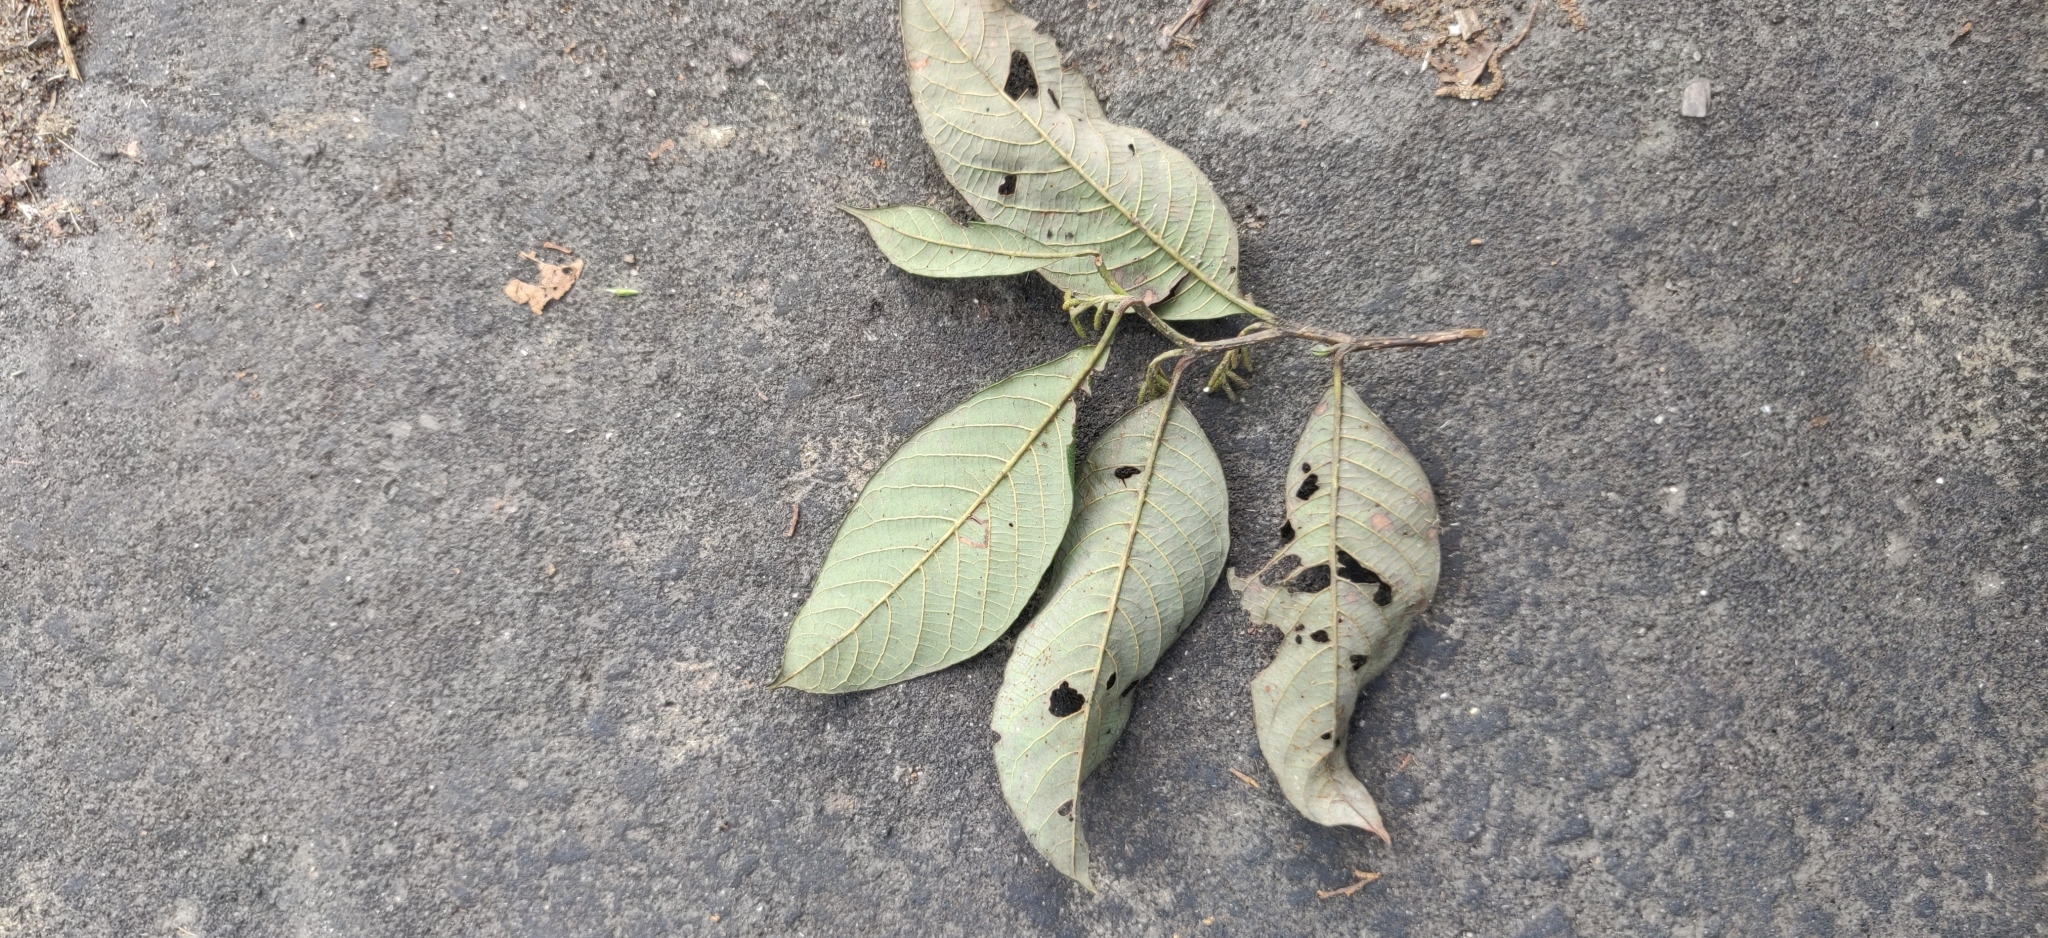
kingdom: Plantae
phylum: Tracheophyta
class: Magnoliopsida
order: Fagales
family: Betulaceae
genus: Alnus
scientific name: Alnus nepalensis
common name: Nepal alder
